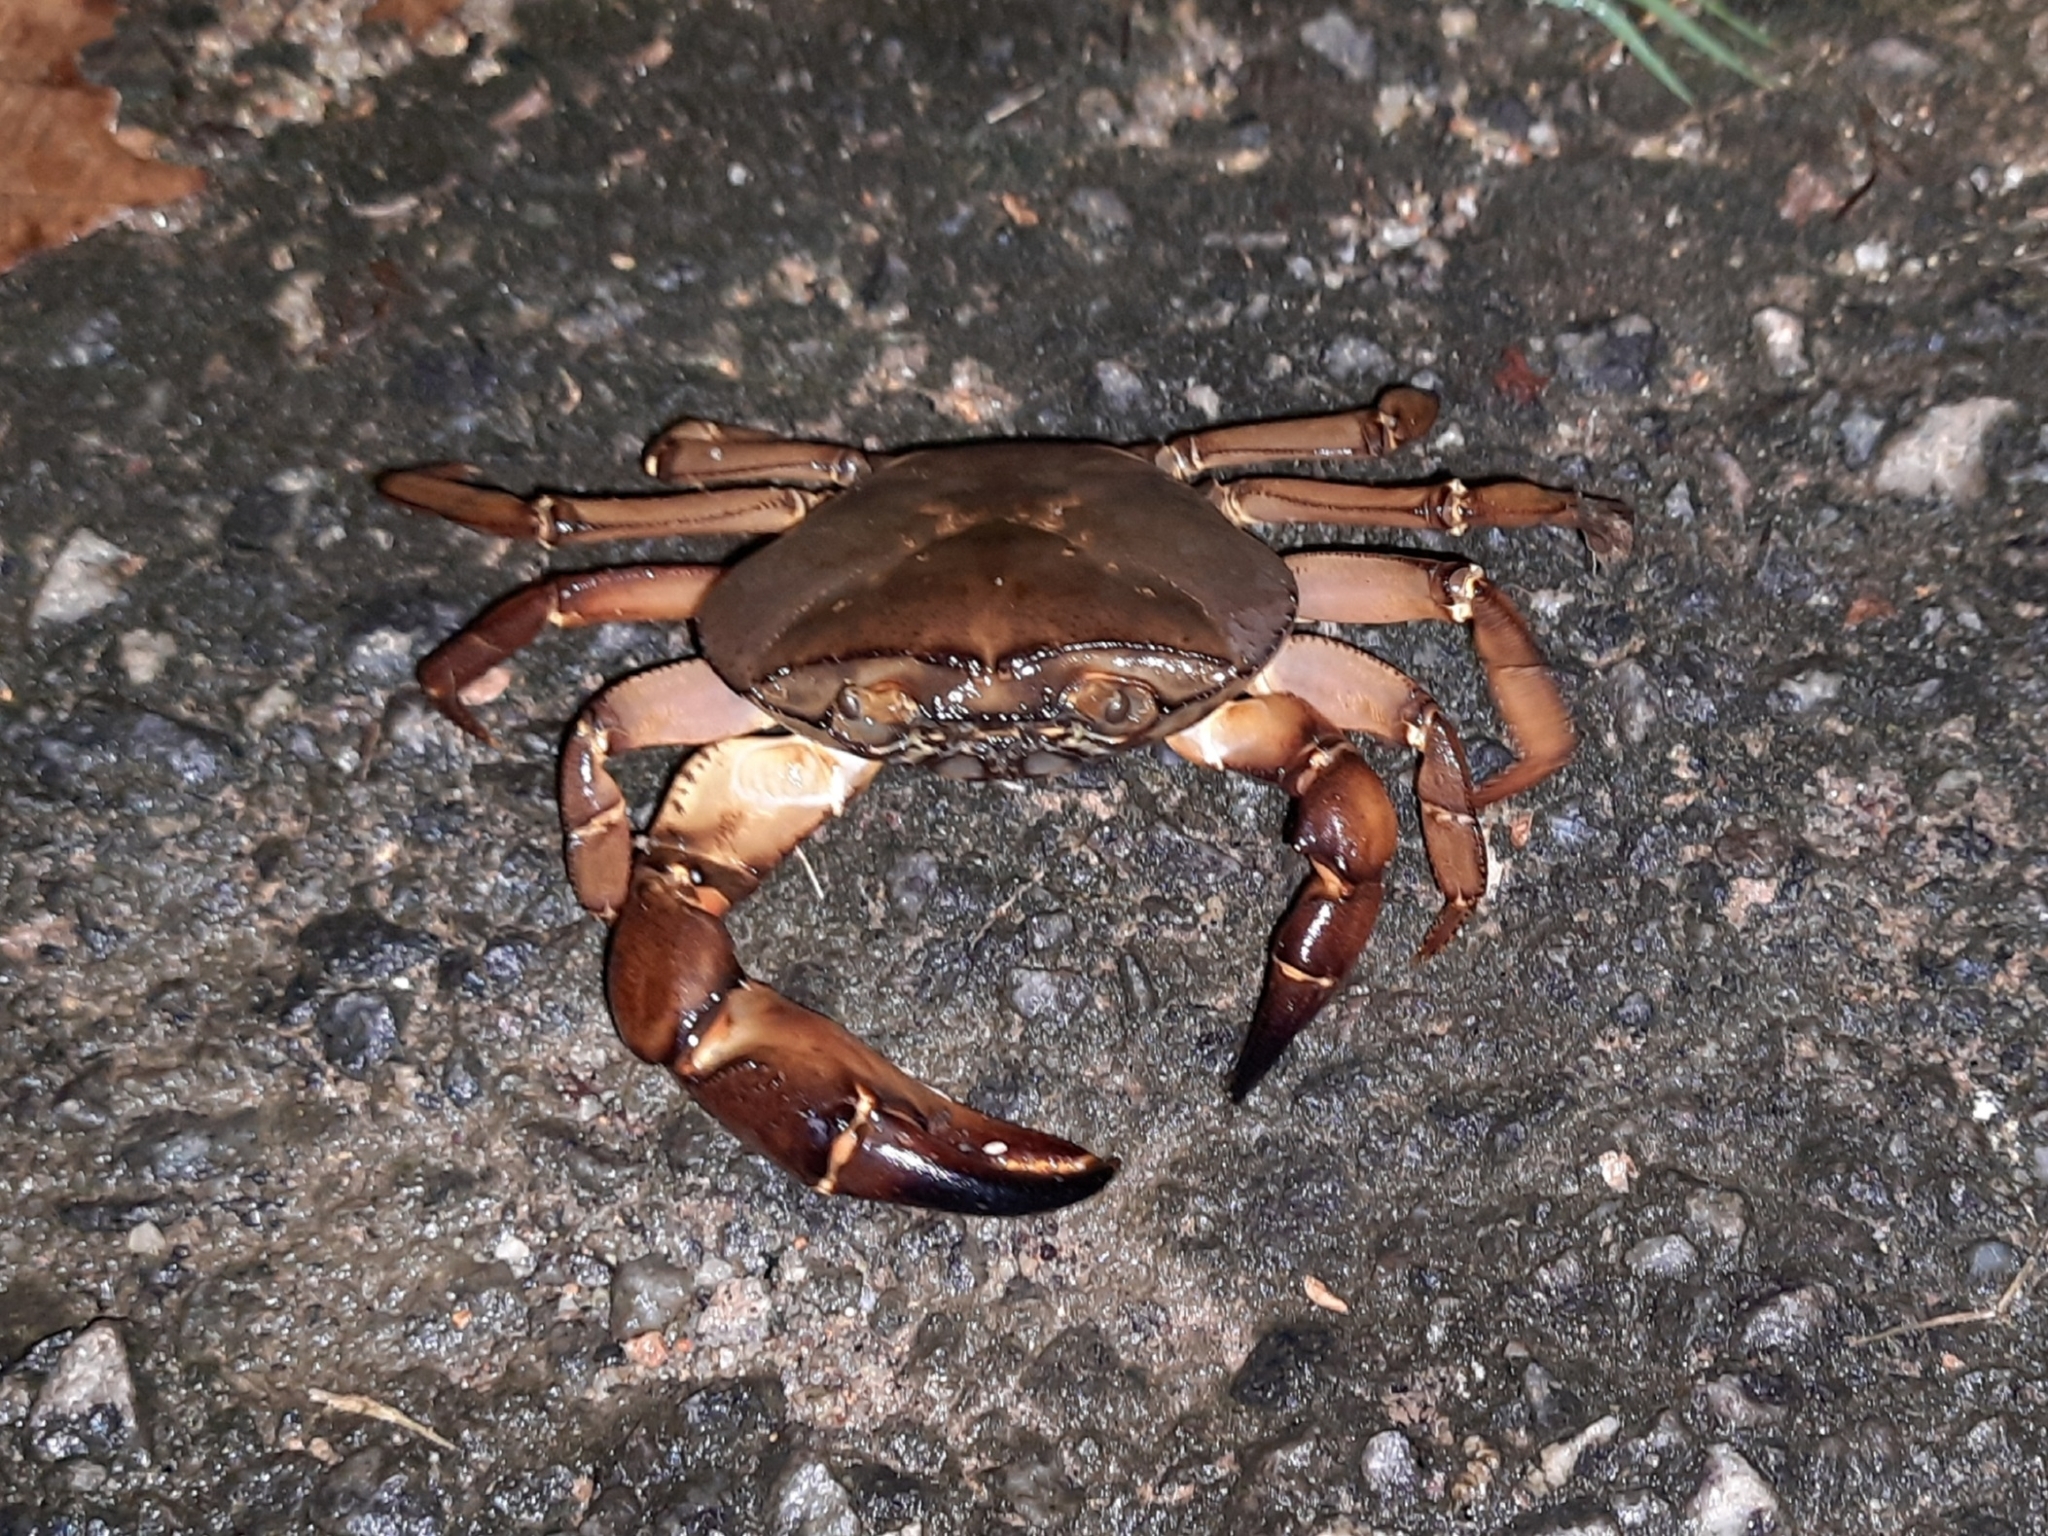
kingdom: Animalia
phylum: Arthropoda
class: Malacostraca
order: Decapoda
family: Gecarcinucidae
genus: Barytelphusa
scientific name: Barytelphusa cunicularis
